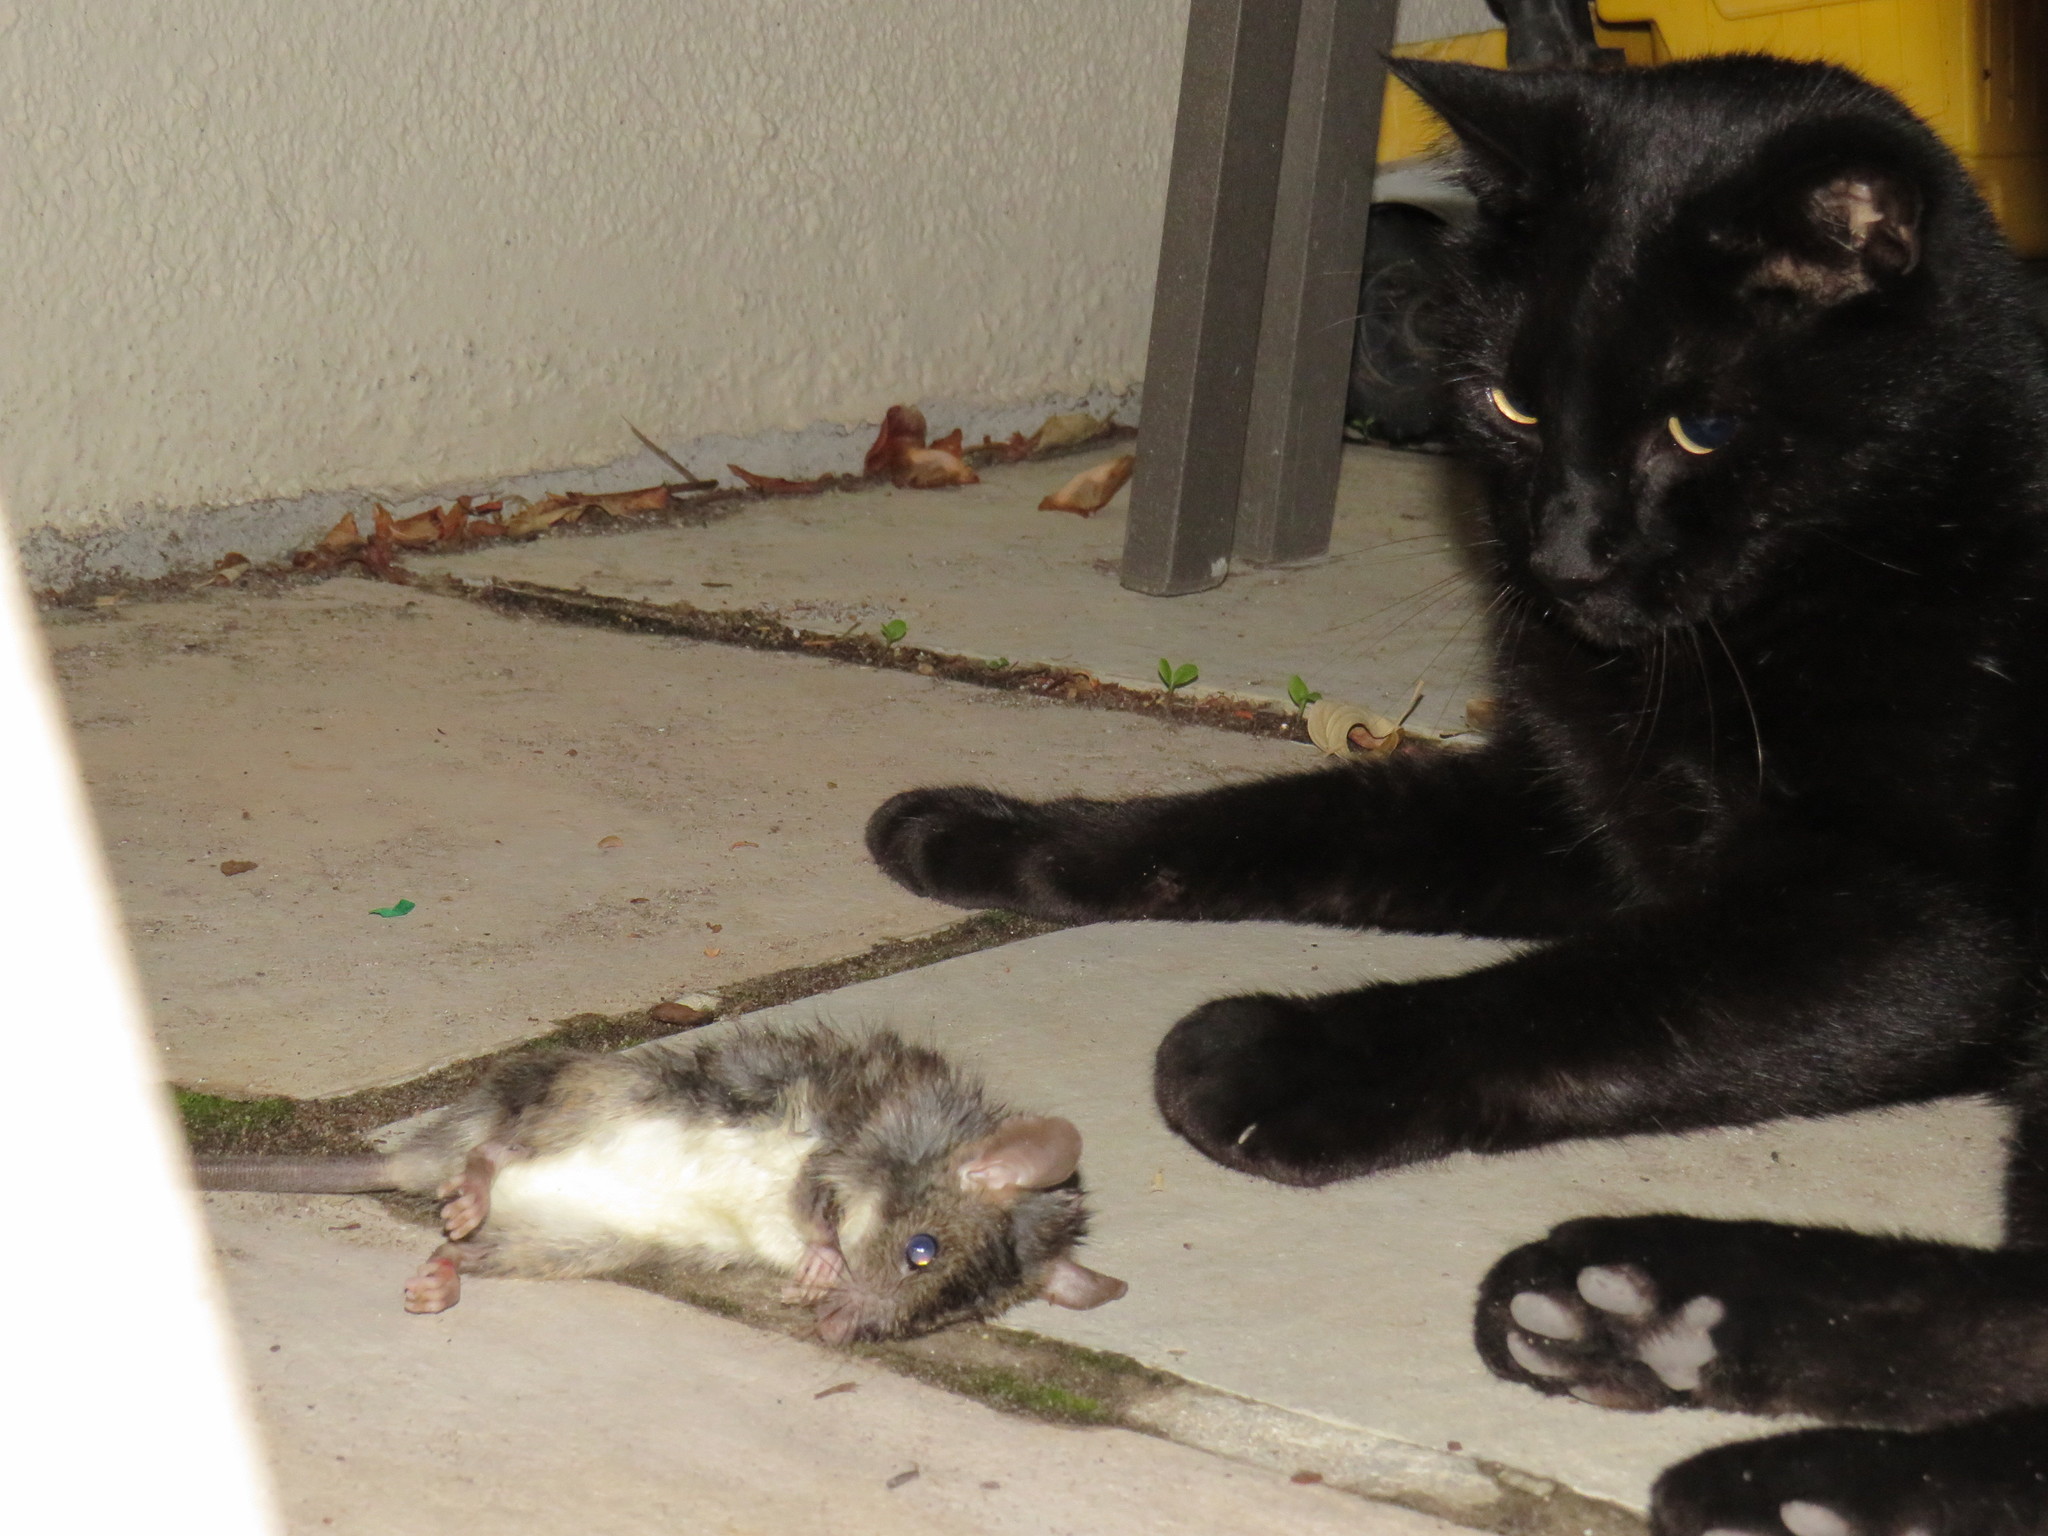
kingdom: Animalia
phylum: Chordata
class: Mammalia
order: Rodentia
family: Muridae
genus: Rattus
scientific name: Rattus rattus
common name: Black rat
